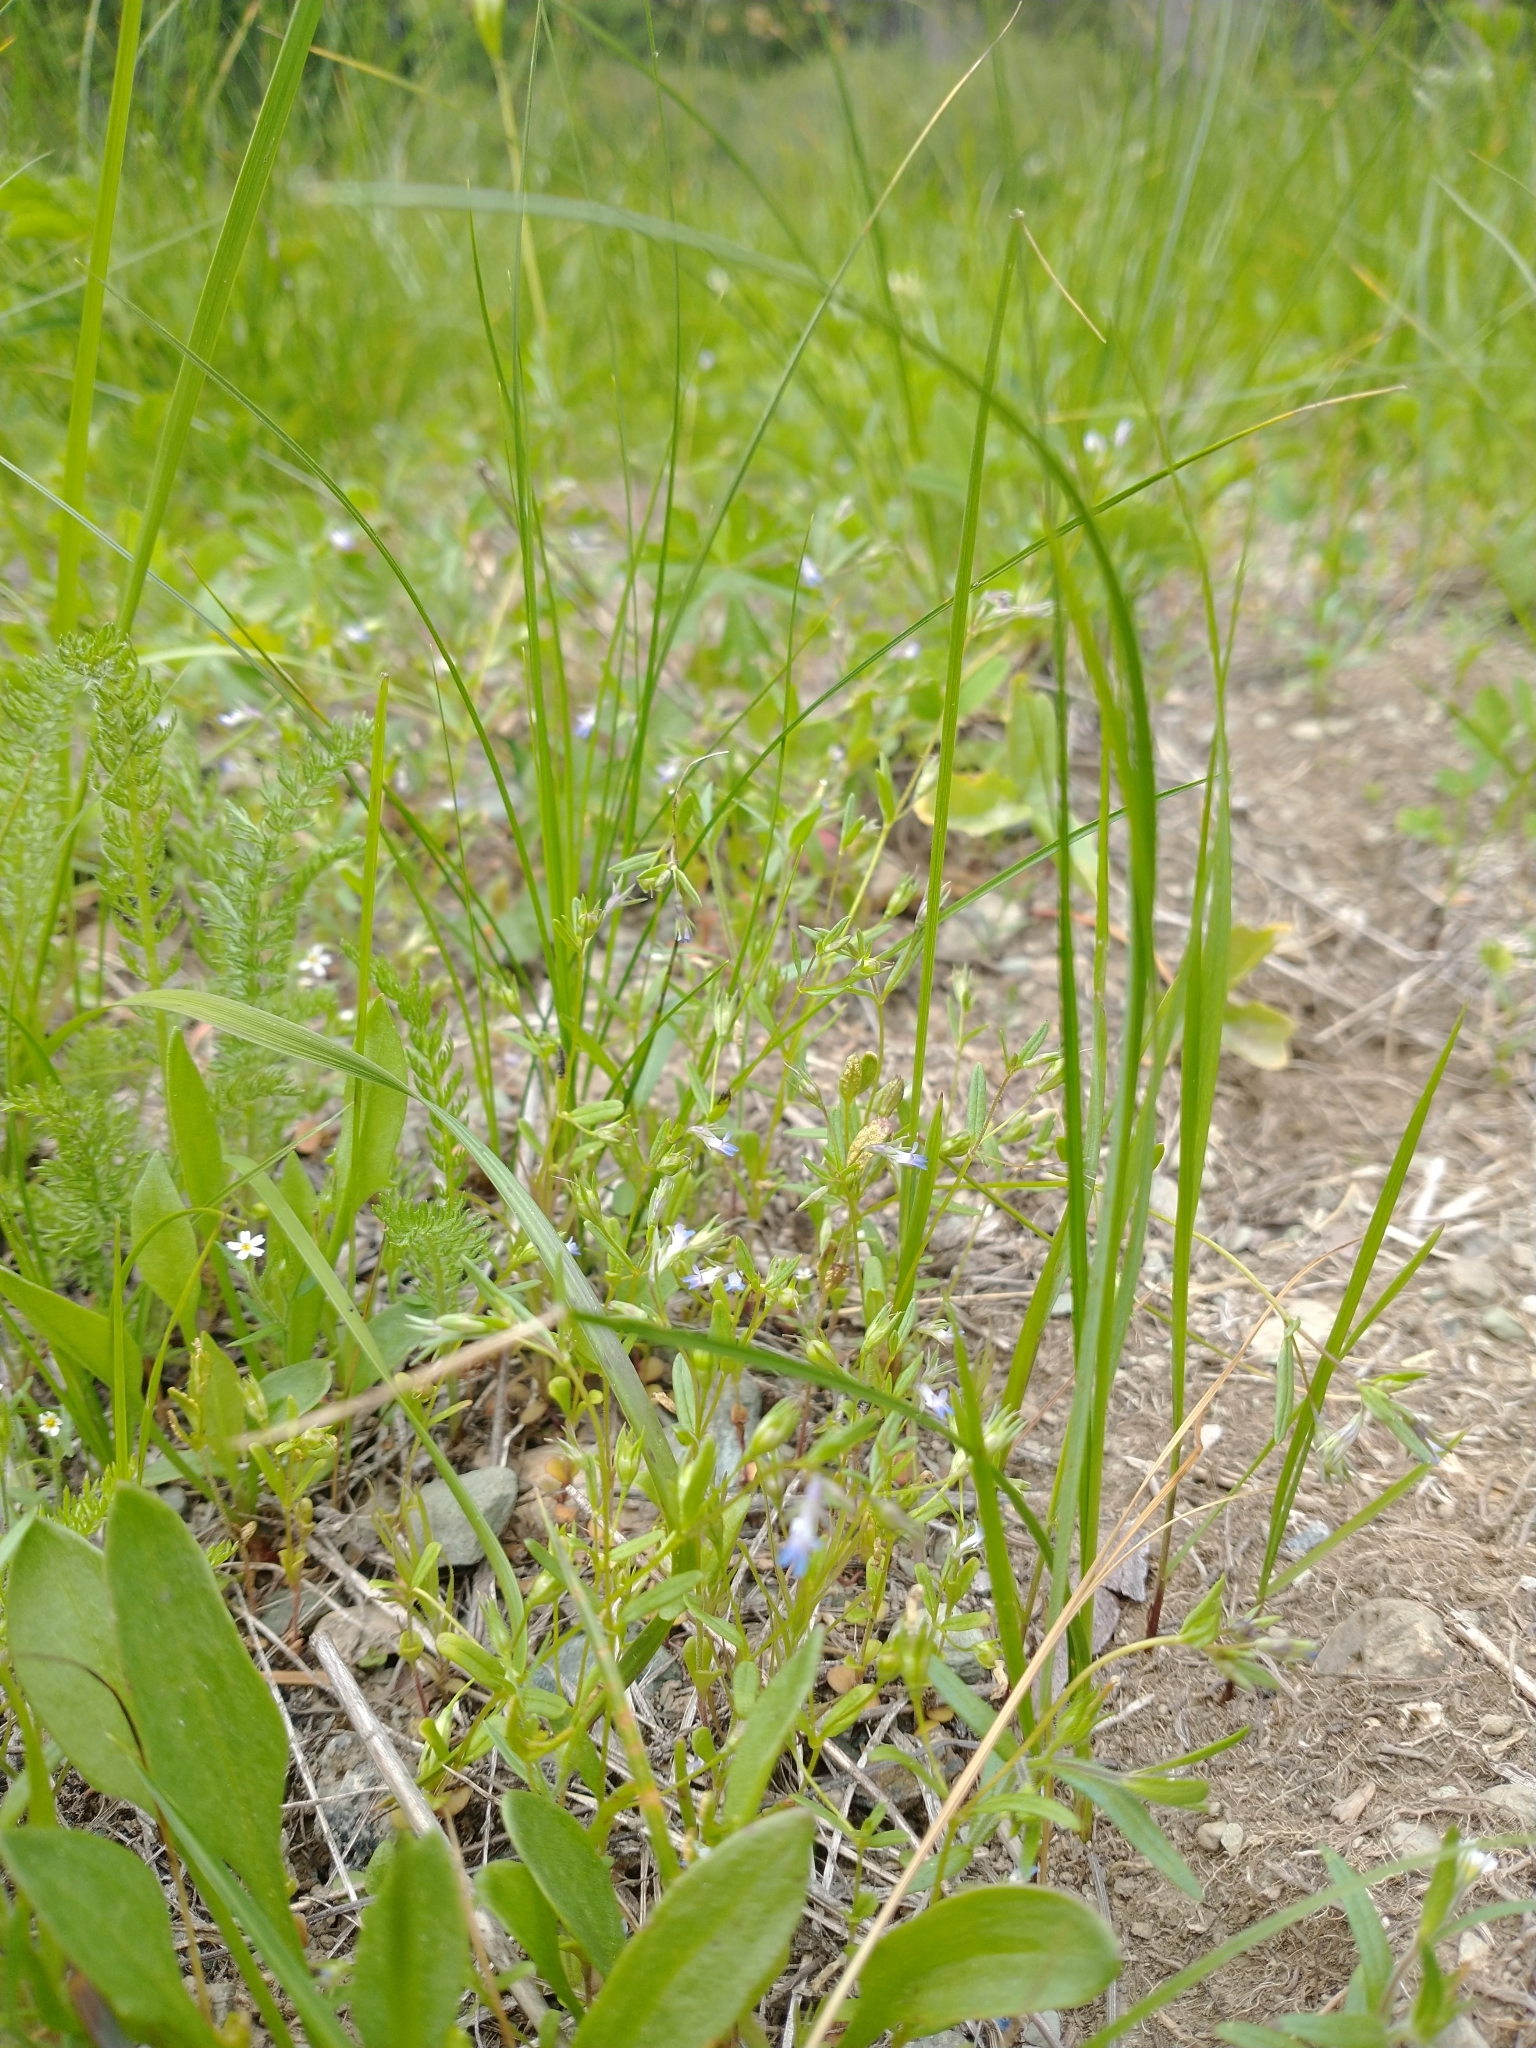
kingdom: Plantae
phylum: Tracheophyta
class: Magnoliopsida
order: Lamiales
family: Plantaginaceae
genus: Collinsia
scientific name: Collinsia parviflora
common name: Blue-lips
